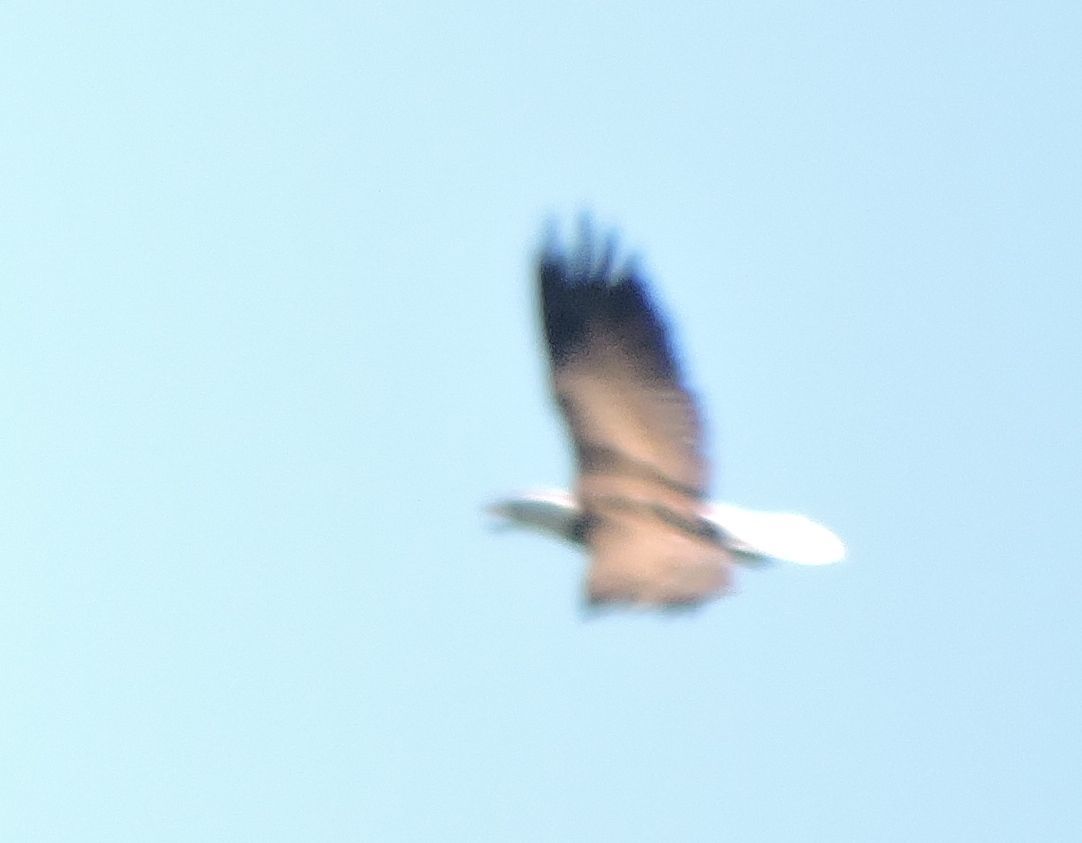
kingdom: Animalia
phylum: Chordata
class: Aves
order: Accipitriformes
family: Accipitridae
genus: Haliaeetus
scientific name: Haliaeetus leucocephalus
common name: Bald eagle
